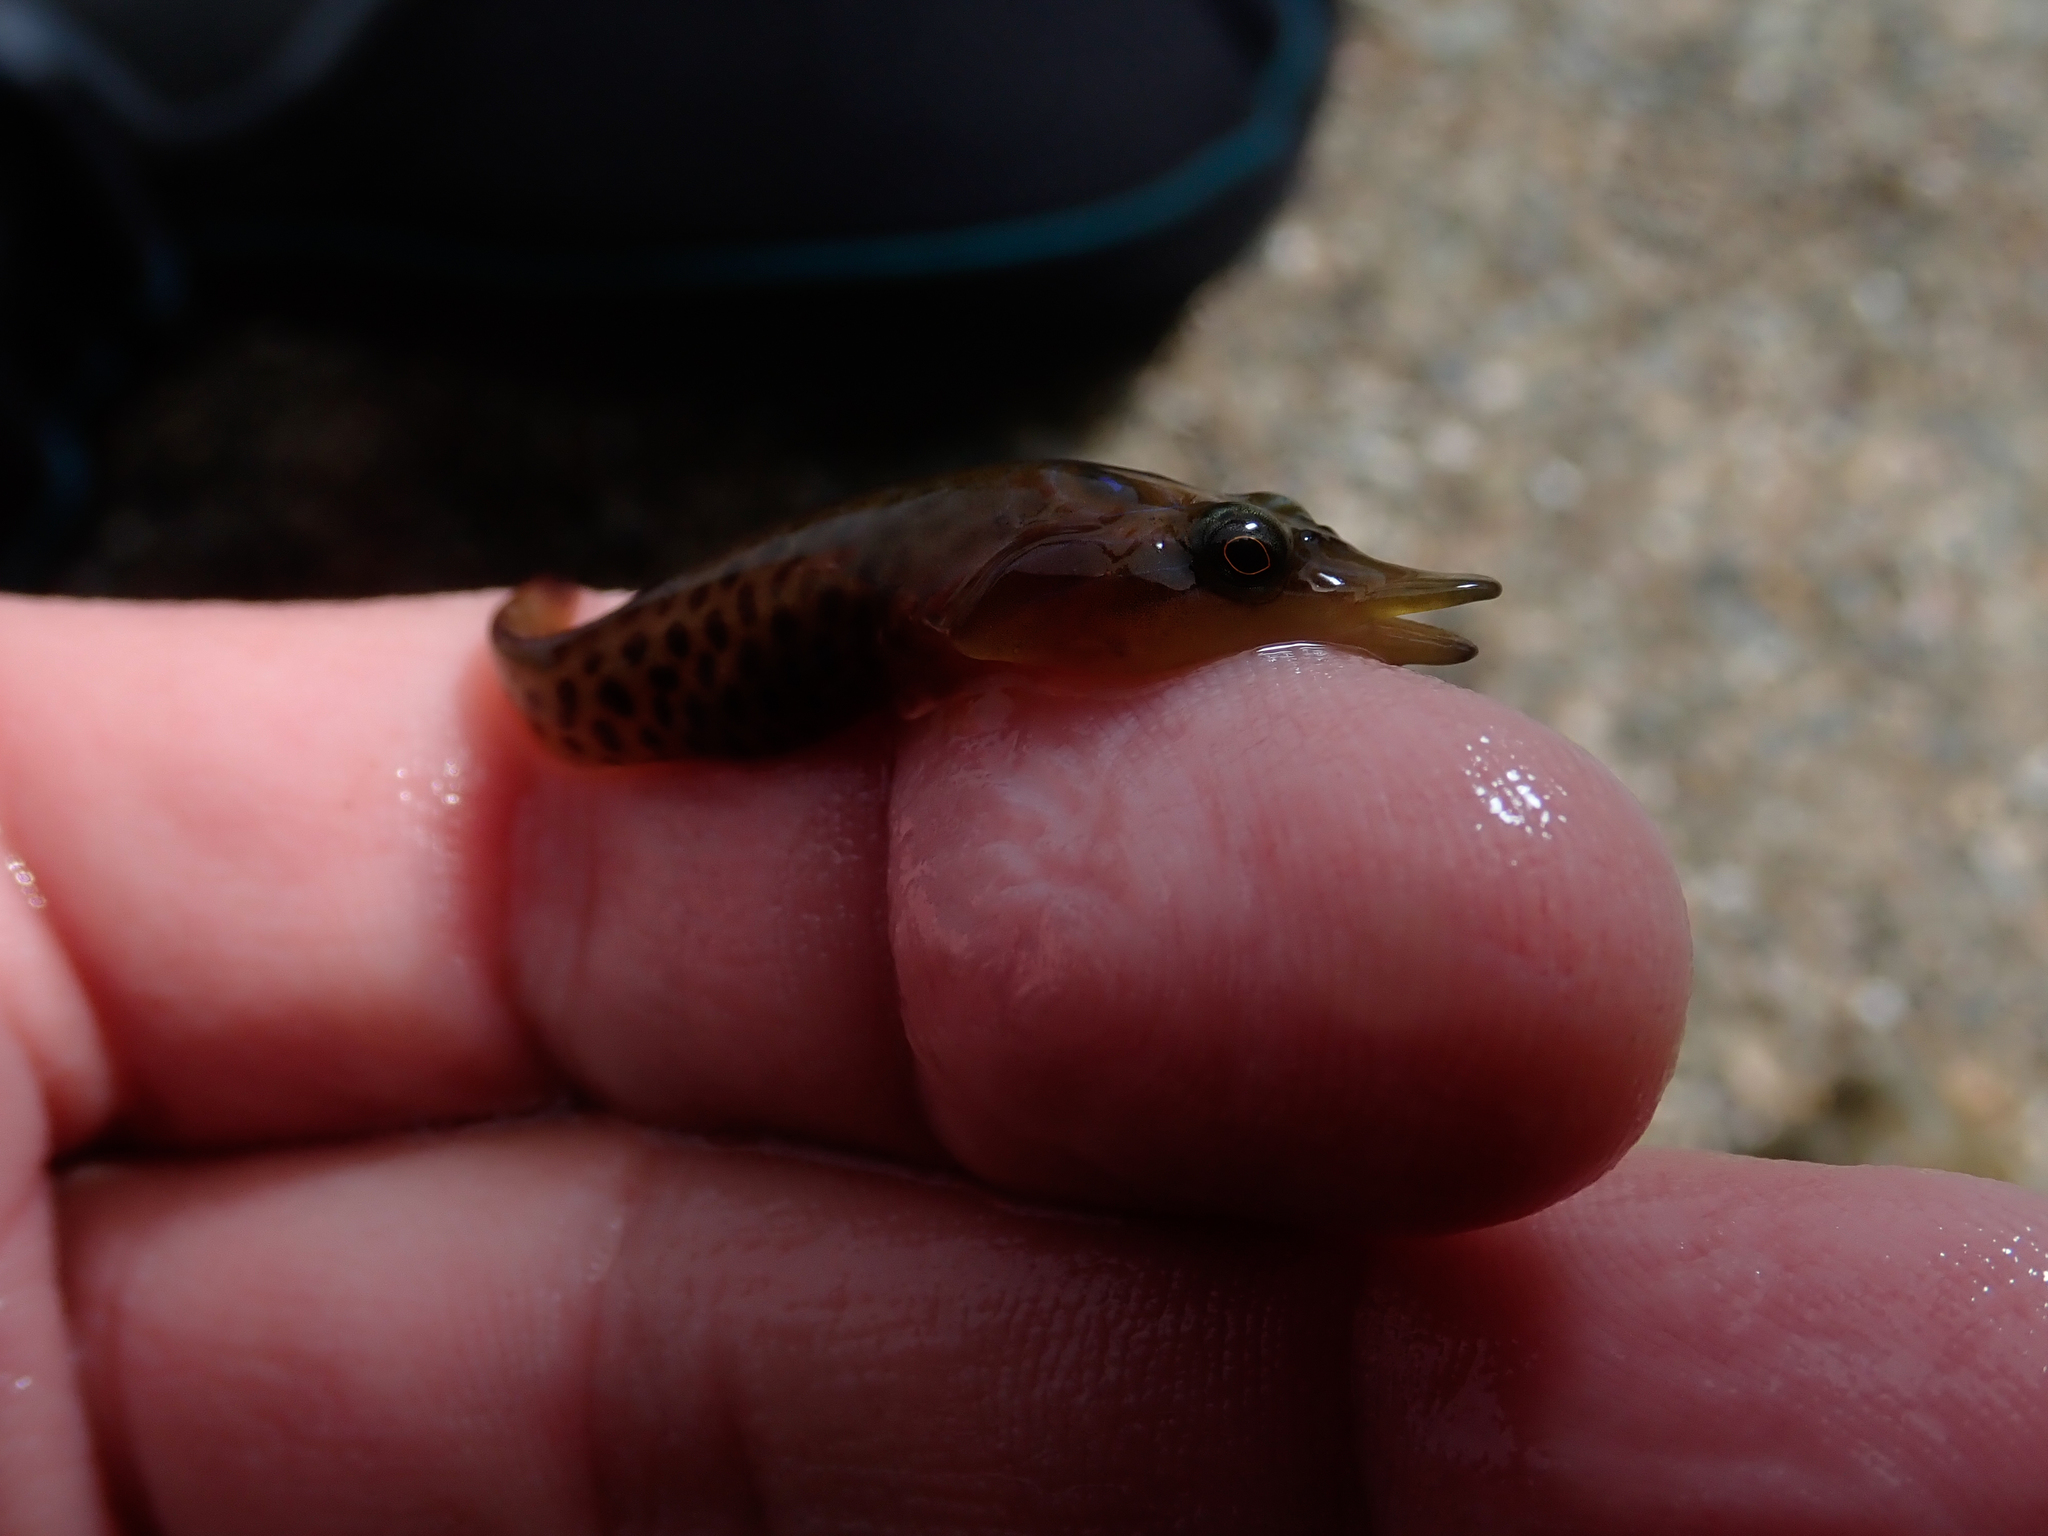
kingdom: Animalia
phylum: Chordata
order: Gobiesociformes
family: Gobiesocidae
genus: Lepadogaster
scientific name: Lepadogaster lepadogaster
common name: Cornish sucker
